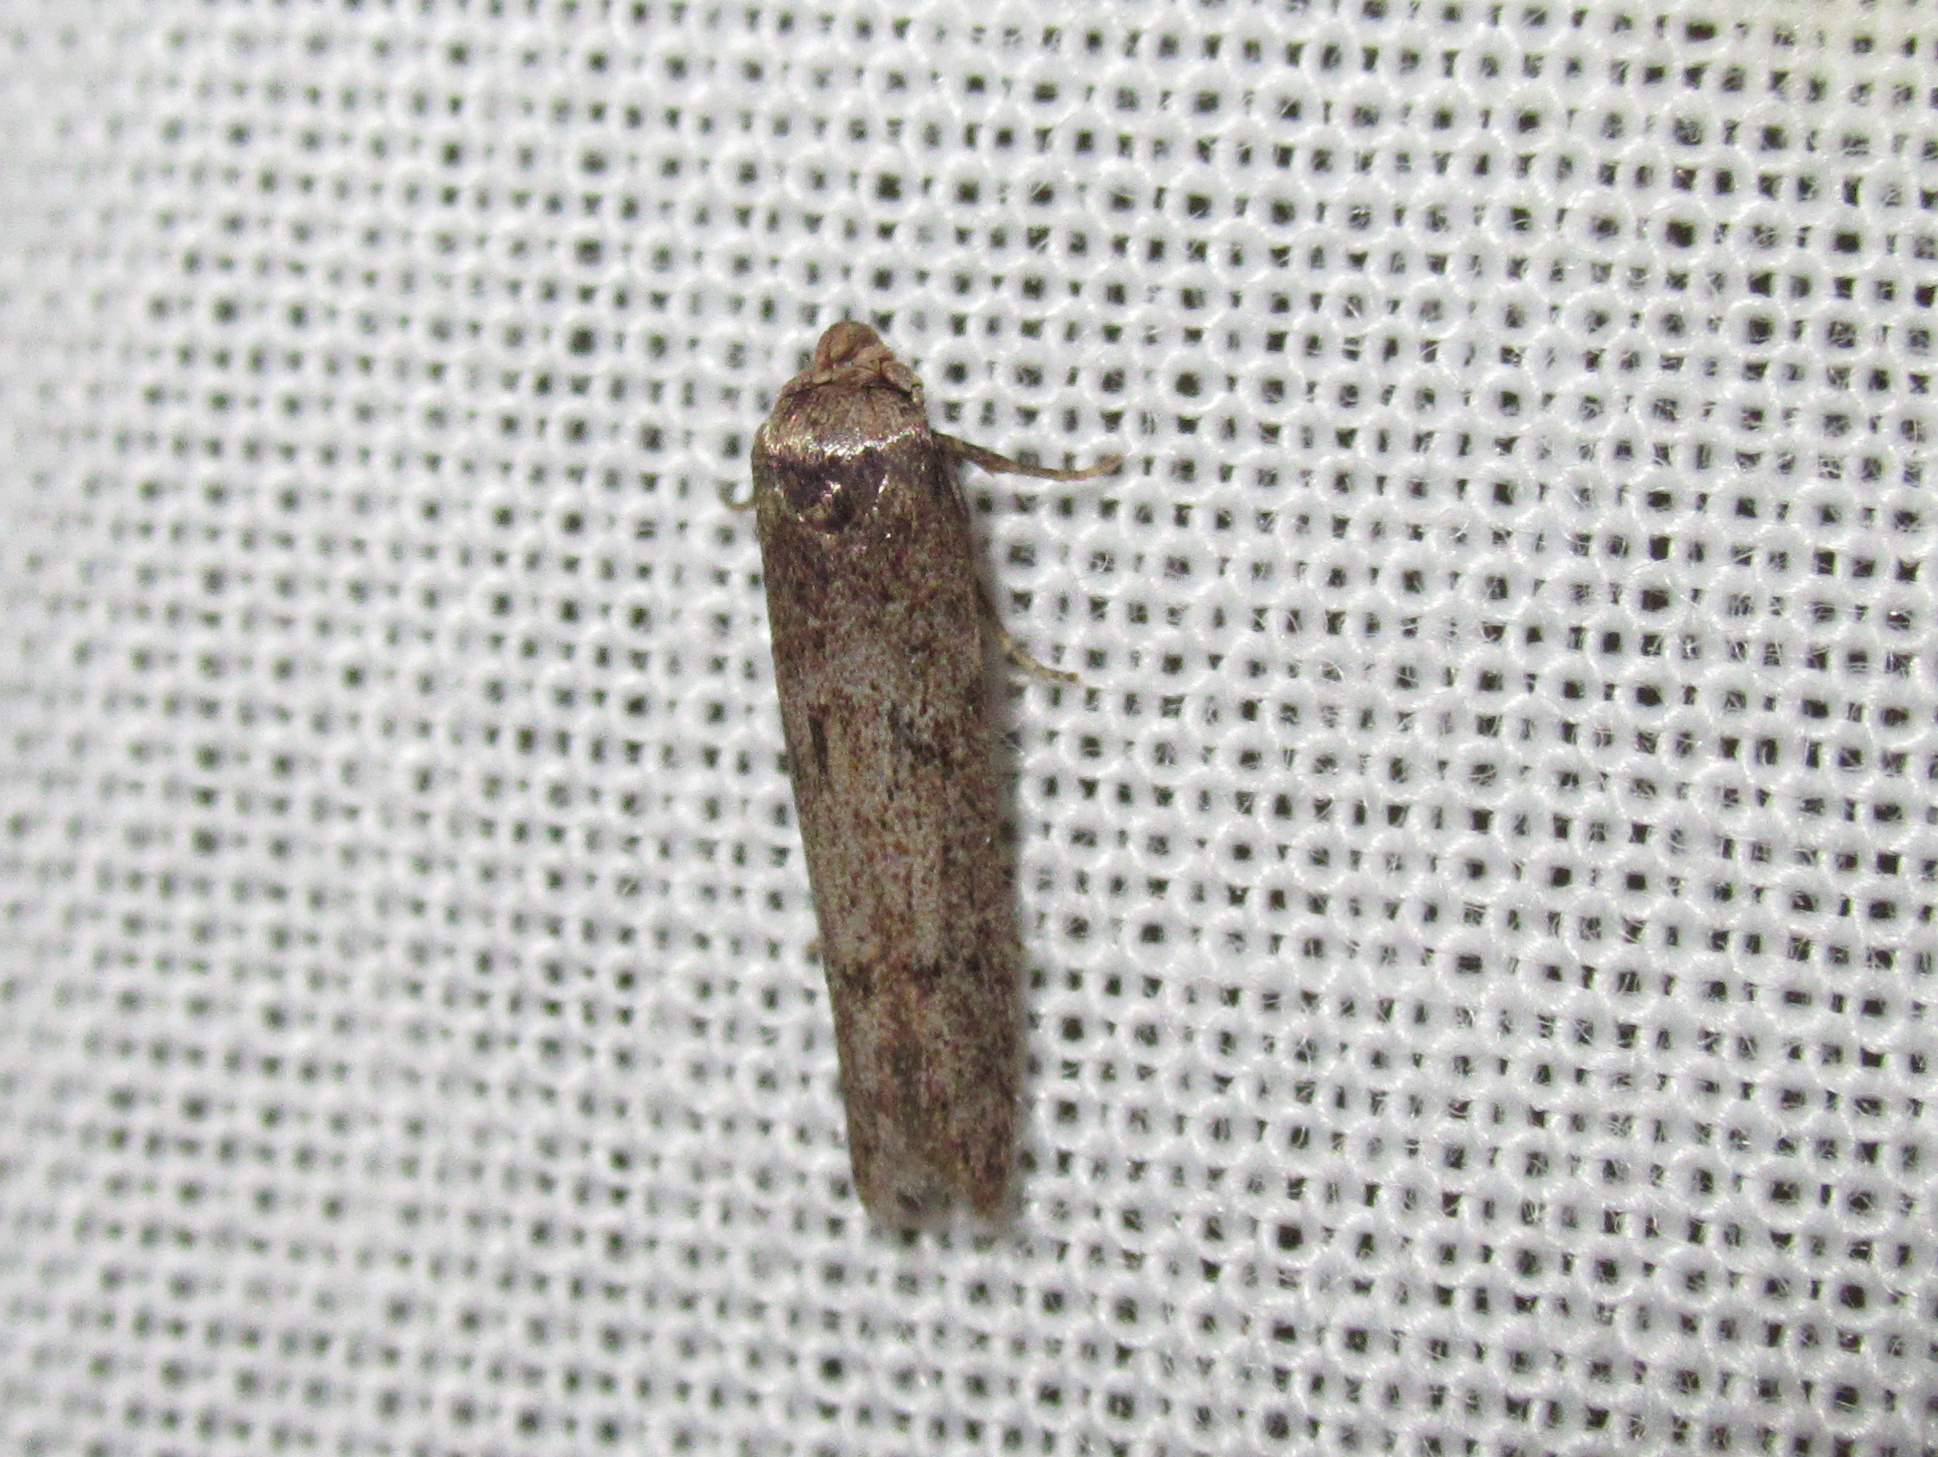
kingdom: Animalia
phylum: Arthropoda
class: Insecta
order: Lepidoptera
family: Blastobasidae
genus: Blastobasis
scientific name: Blastobasis tarda
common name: Blastobasid moth
